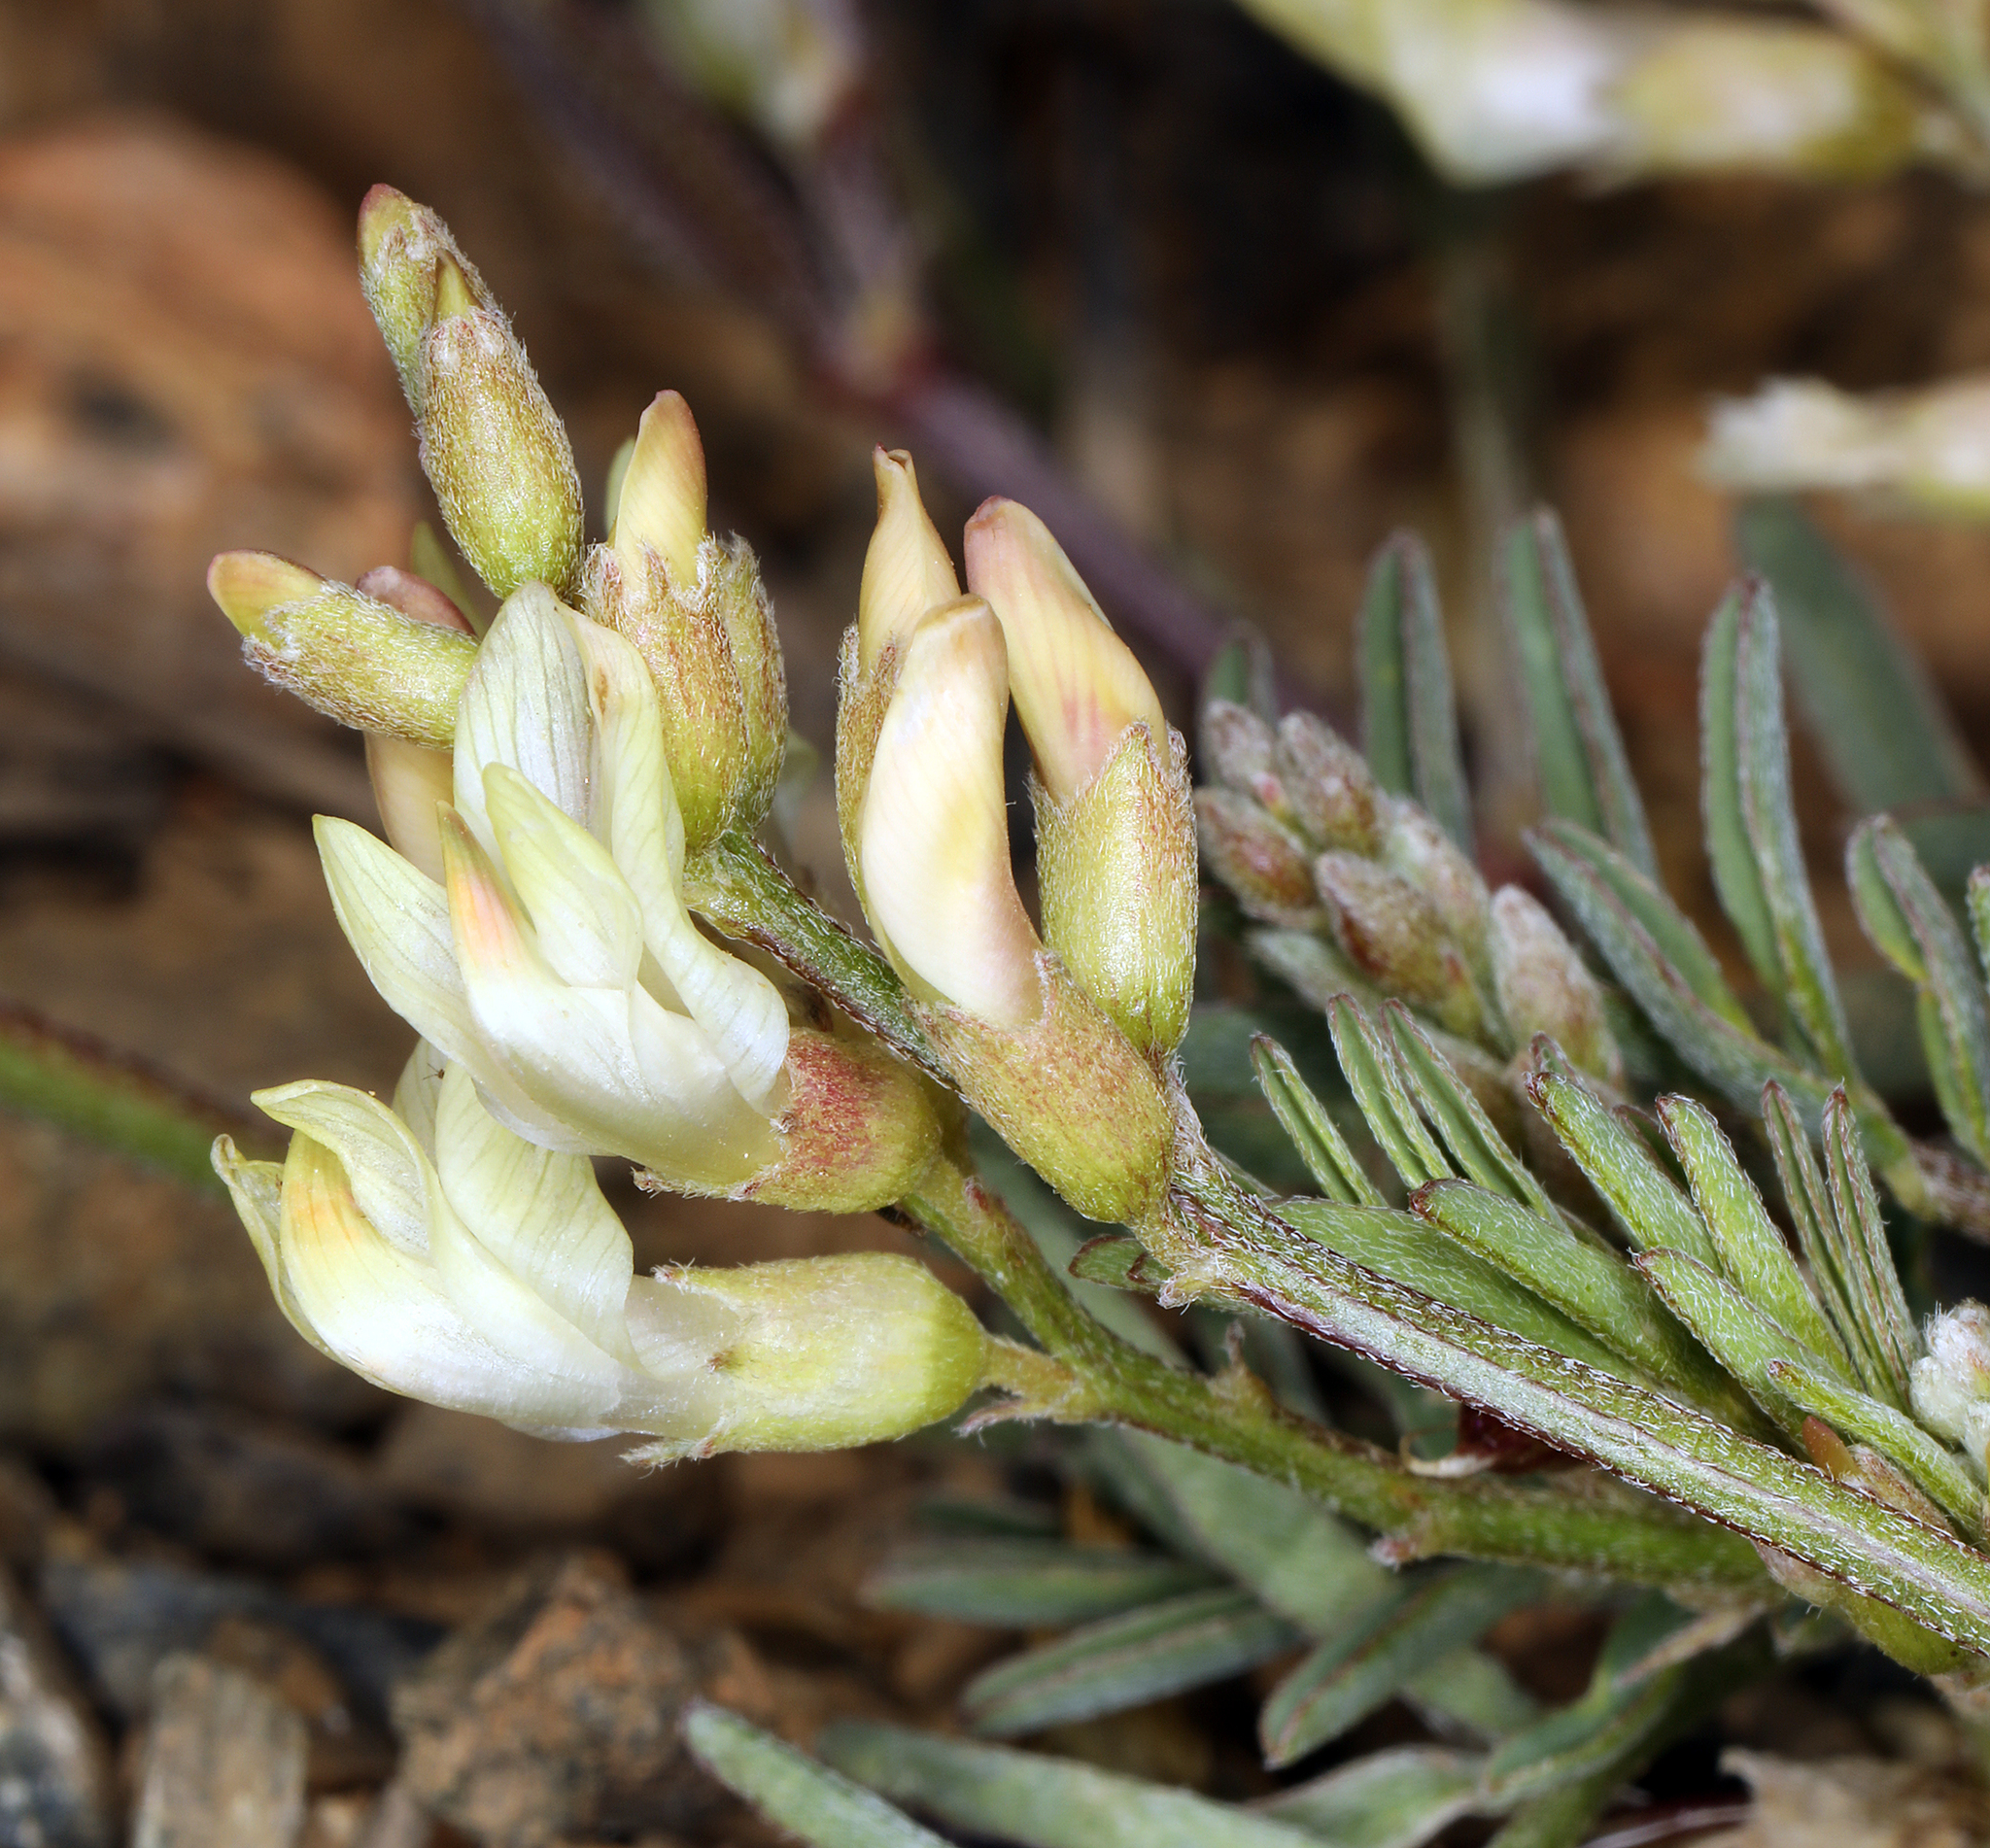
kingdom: Plantae
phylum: Tracheophyta
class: Magnoliopsida
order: Fabales
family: Fabaceae
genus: Astragalus
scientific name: Astragalus whitneyi
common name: Balloonpod milkvetch
